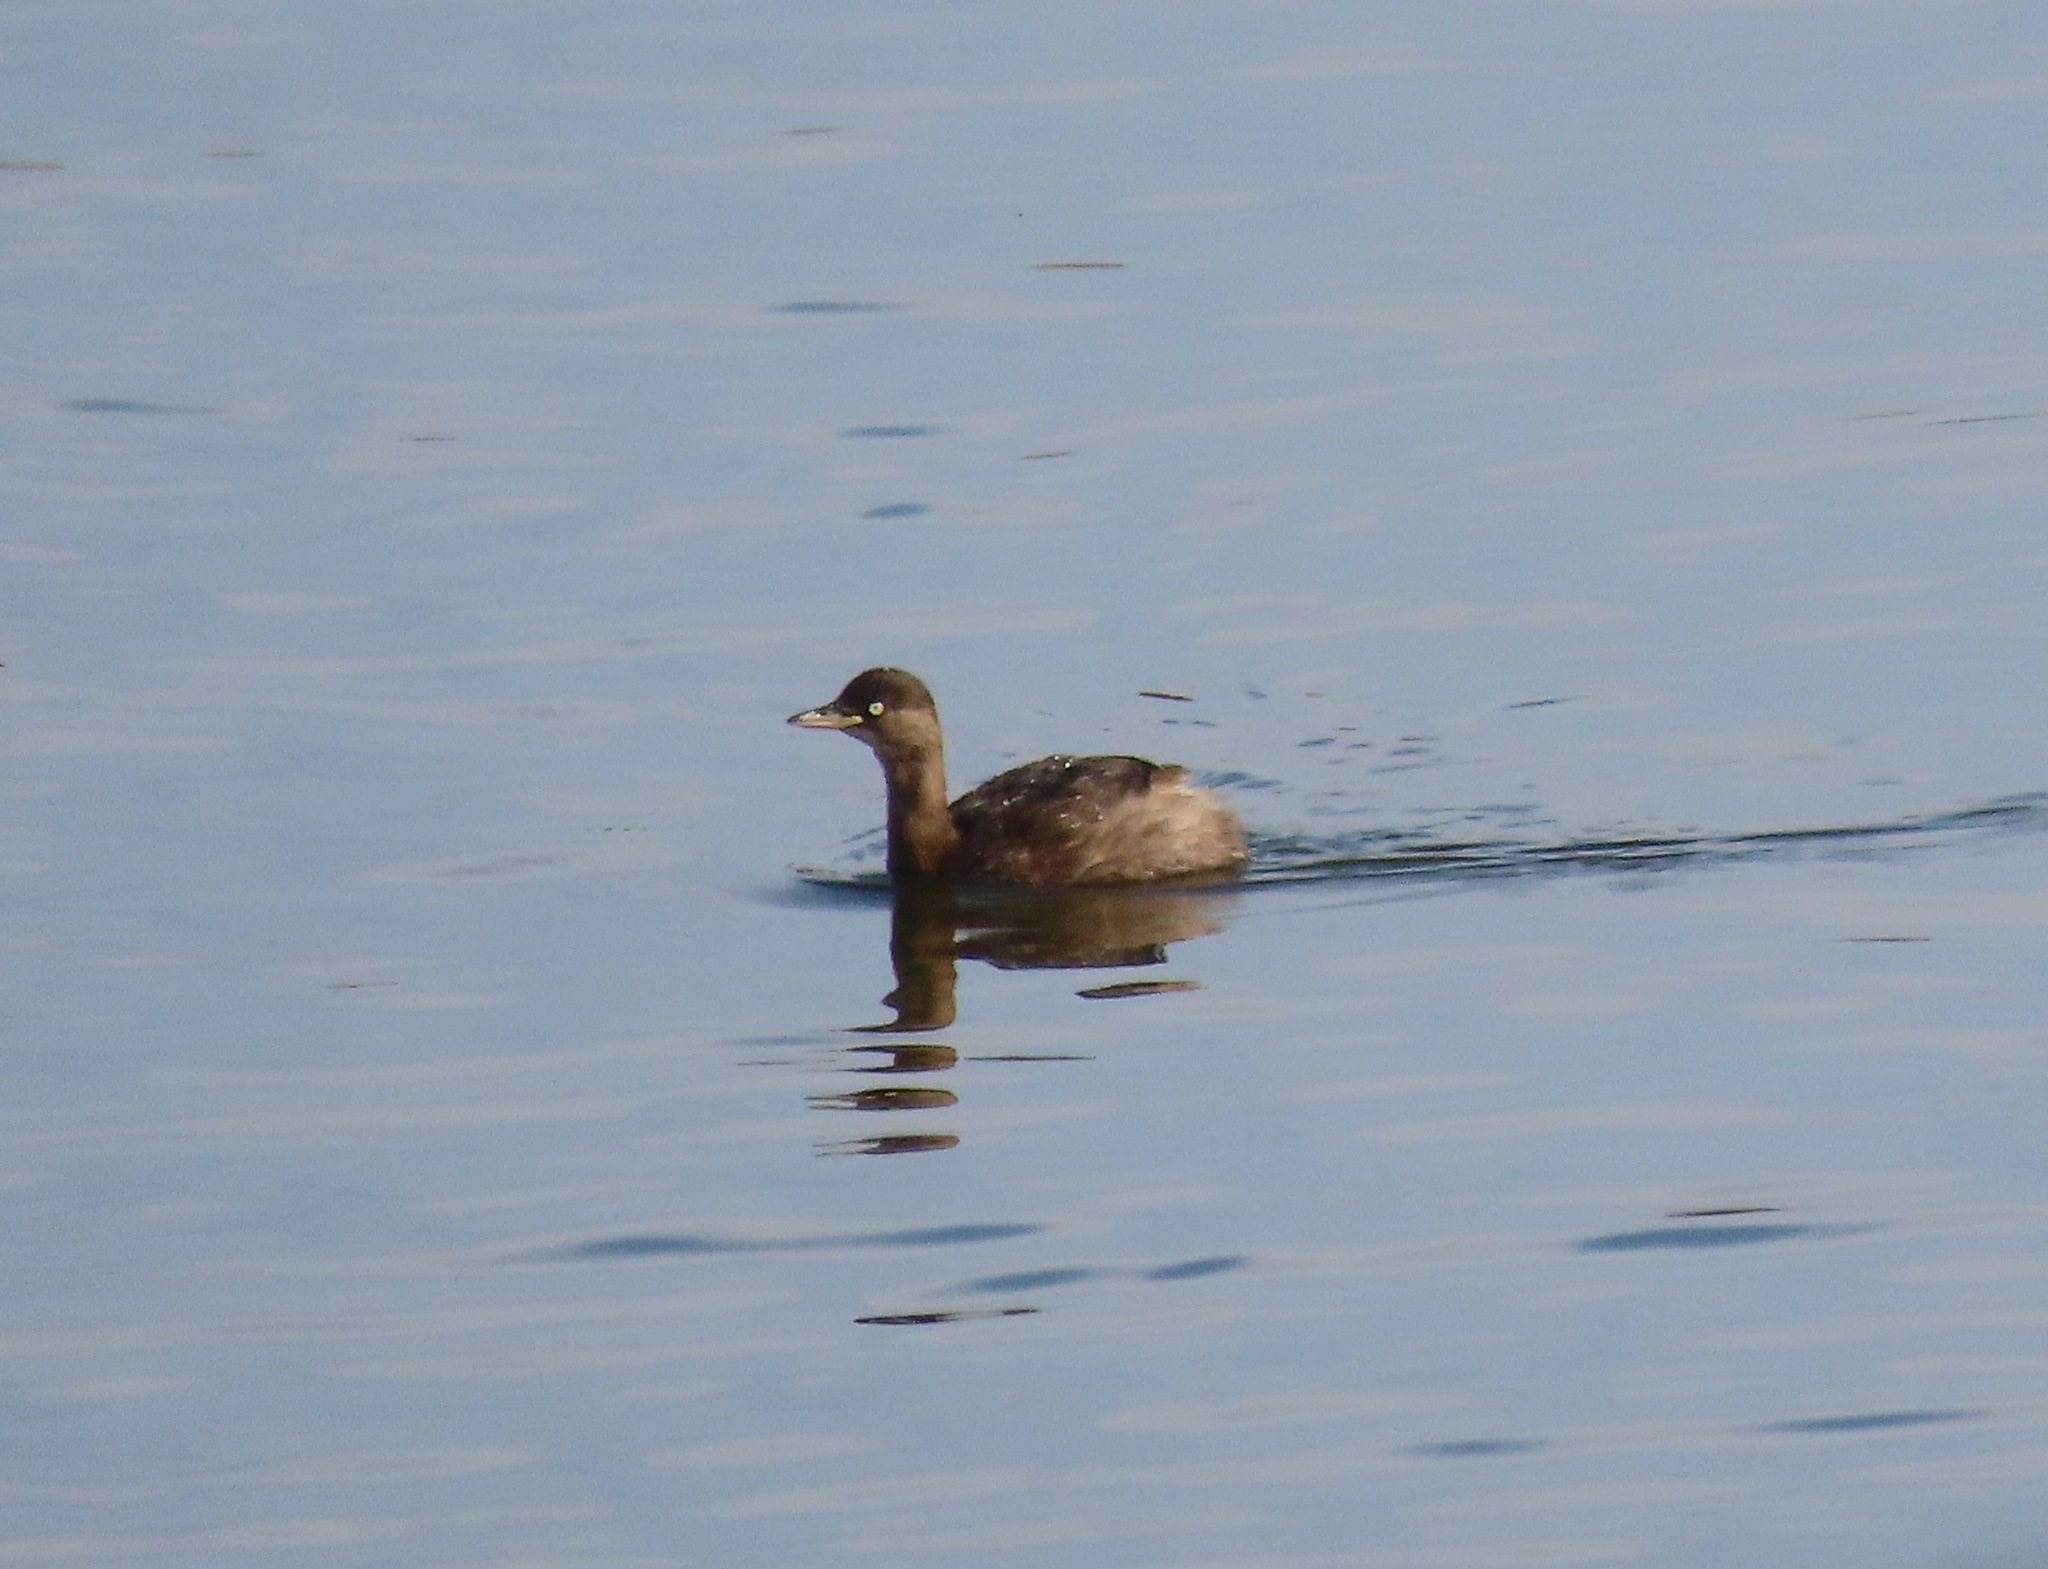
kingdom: Animalia
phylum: Chordata
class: Aves
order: Podicipediformes
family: Podicipedidae
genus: Tachybaptus
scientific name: Tachybaptus ruficollis
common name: Little grebe
